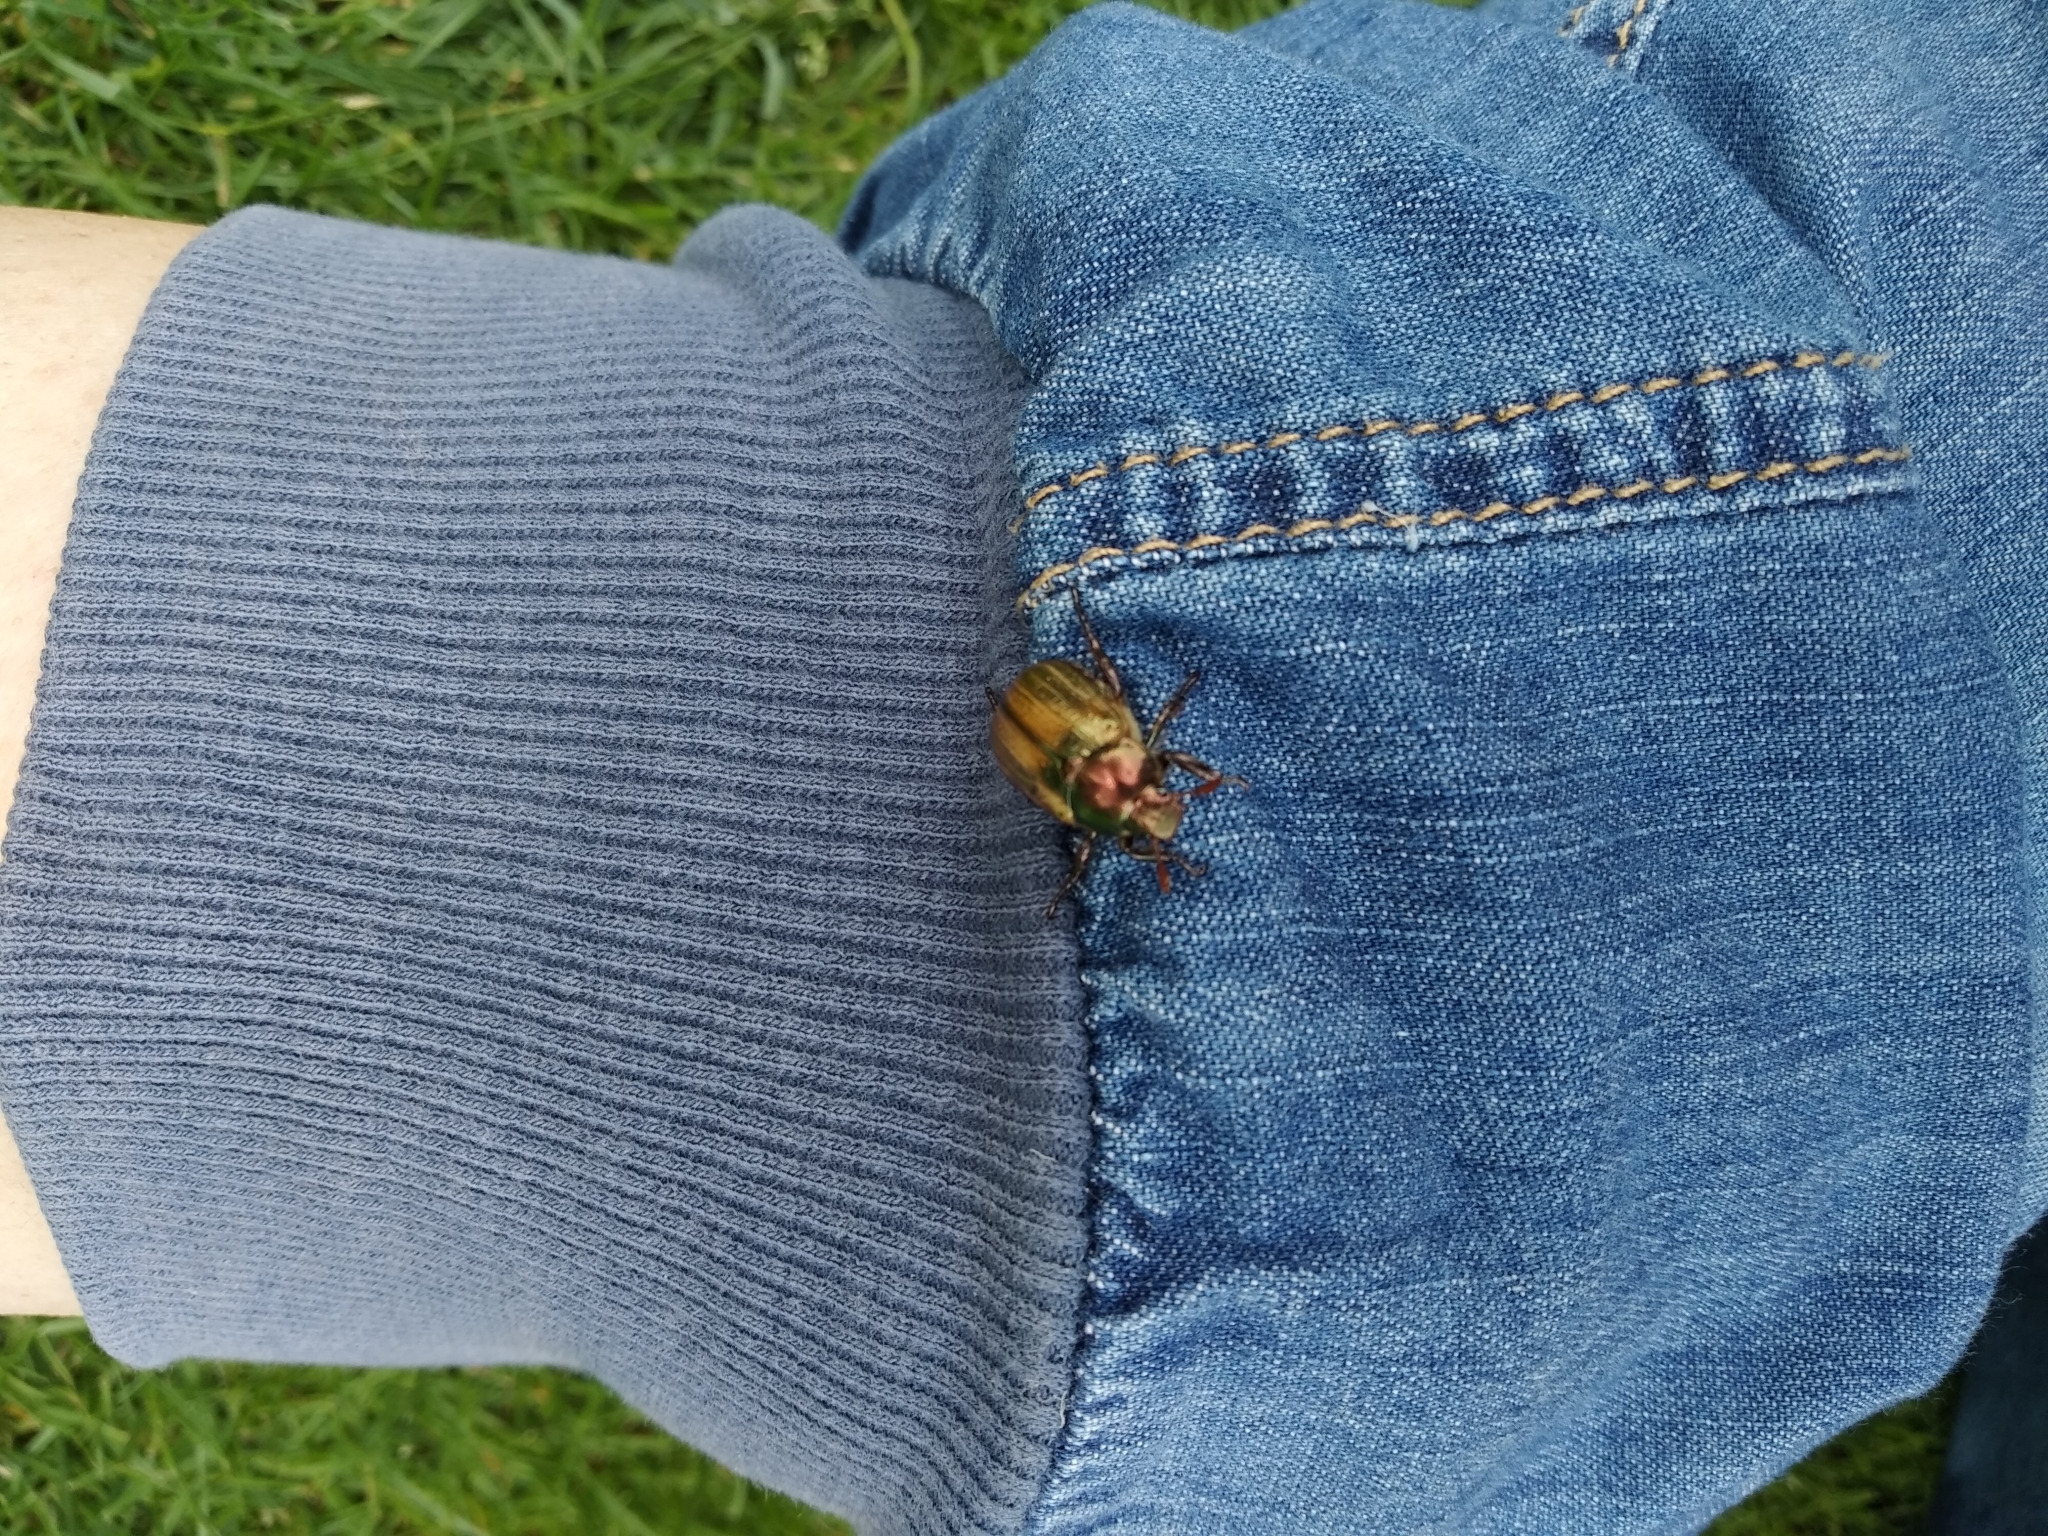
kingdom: Animalia
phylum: Arthropoda
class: Insecta
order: Coleoptera
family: Scarabaeidae
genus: Mimela
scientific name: Mimela junii
